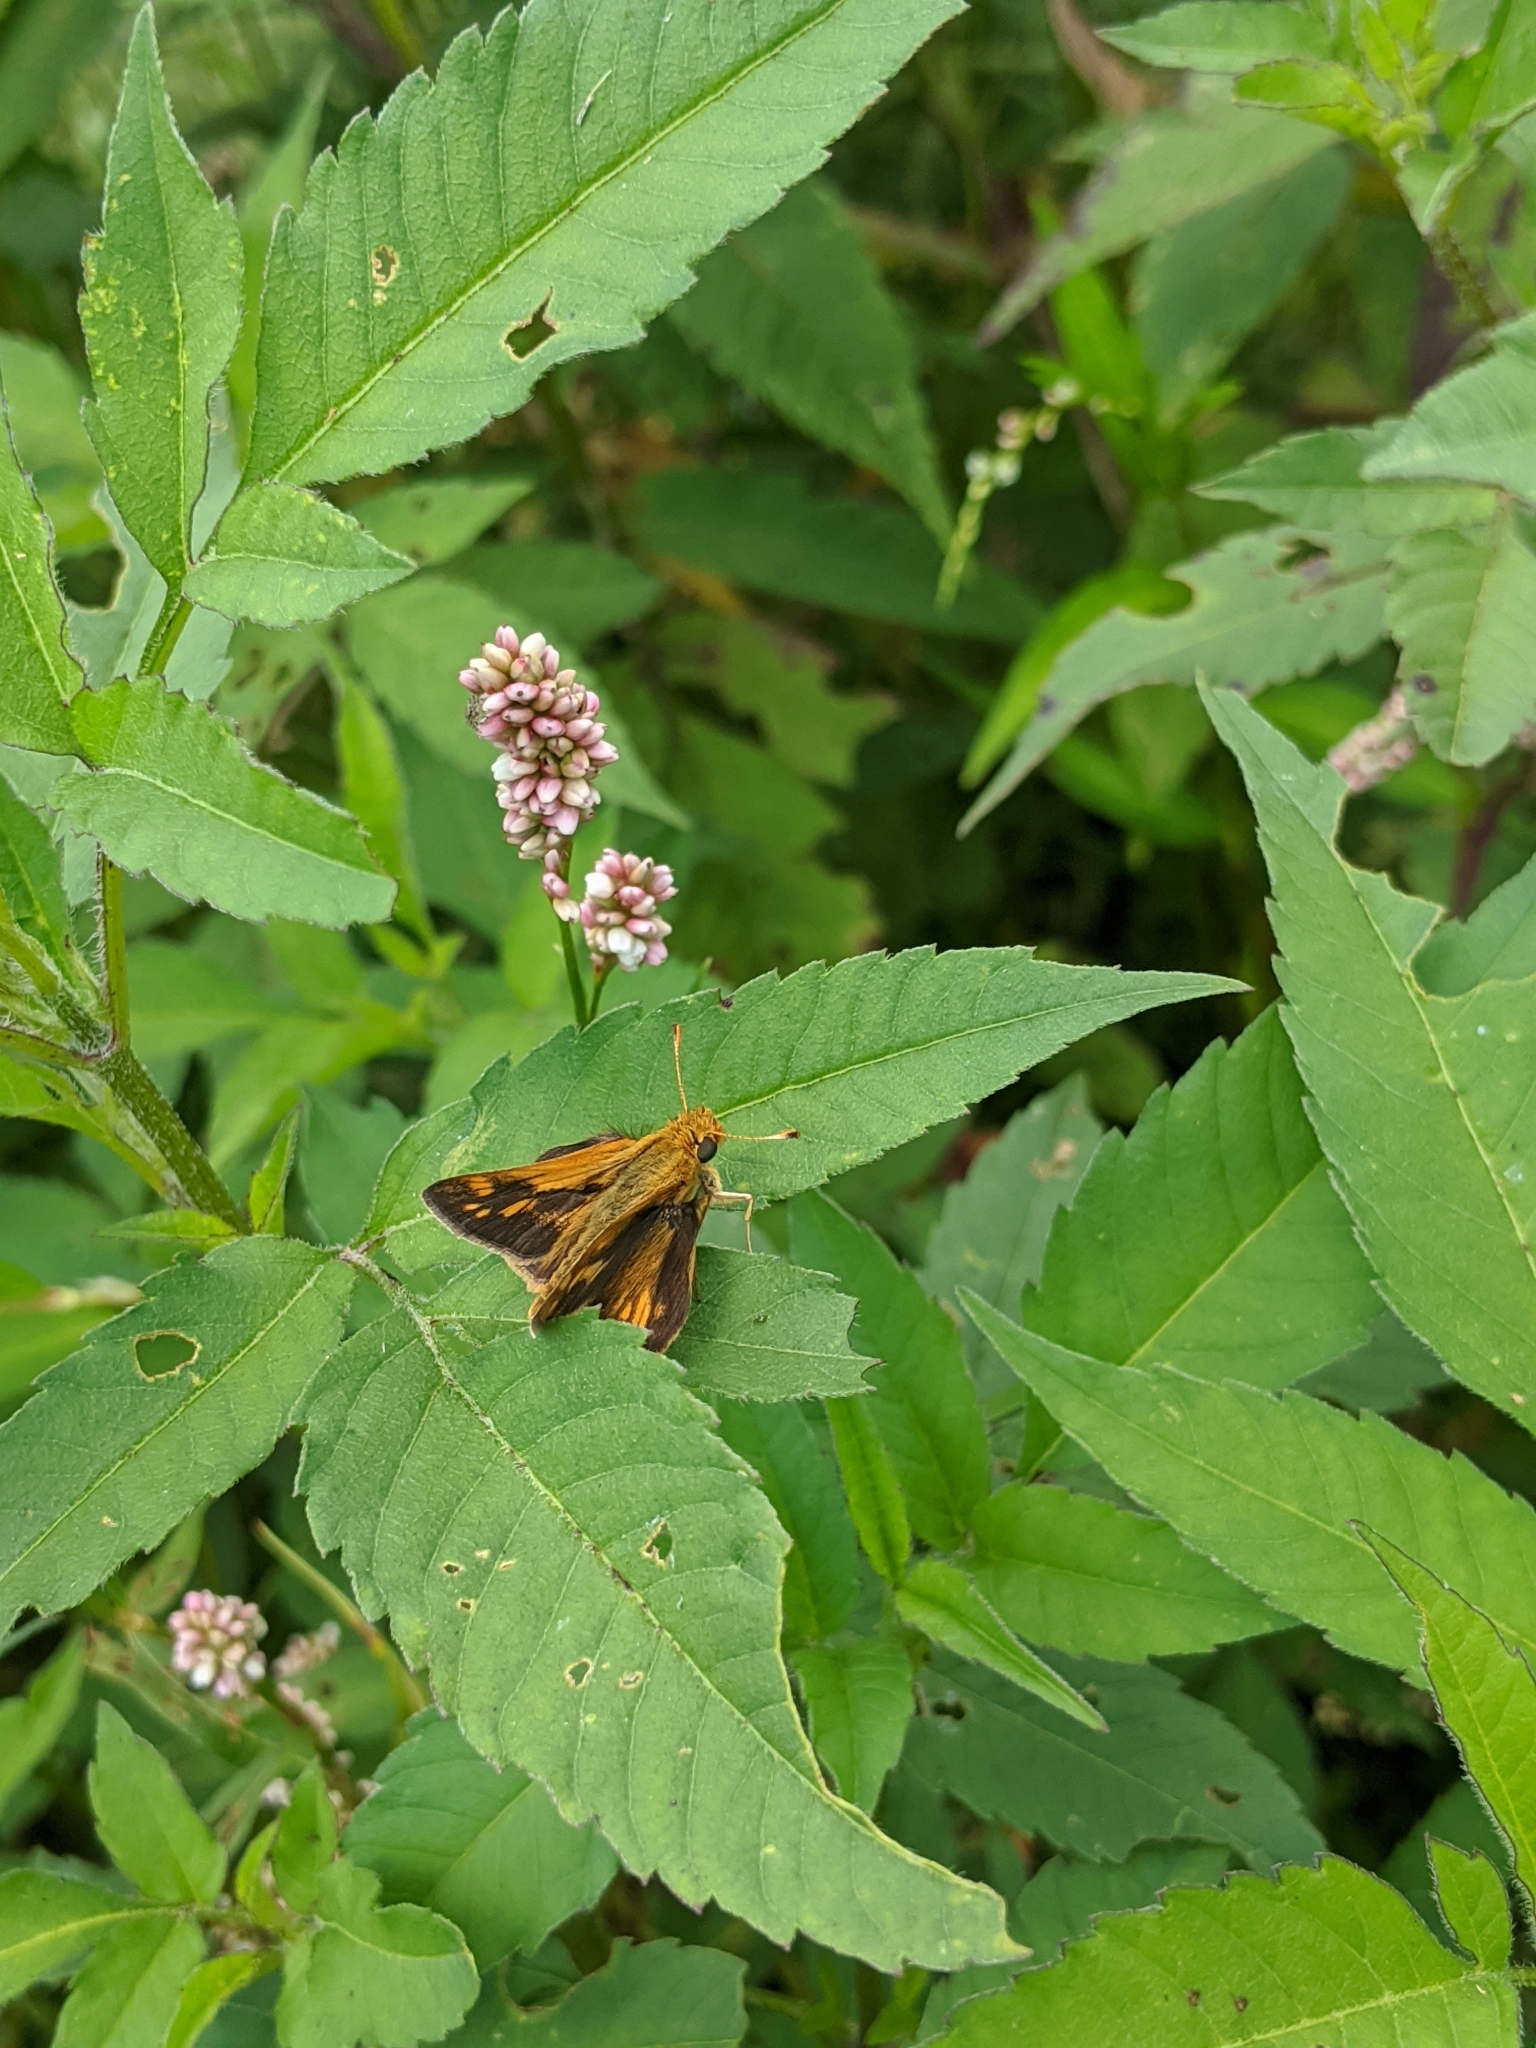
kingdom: Animalia
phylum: Arthropoda
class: Insecta
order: Lepidoptera
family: Hesperiidae
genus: Polites
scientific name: Polites coras
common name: Peck's skipper
